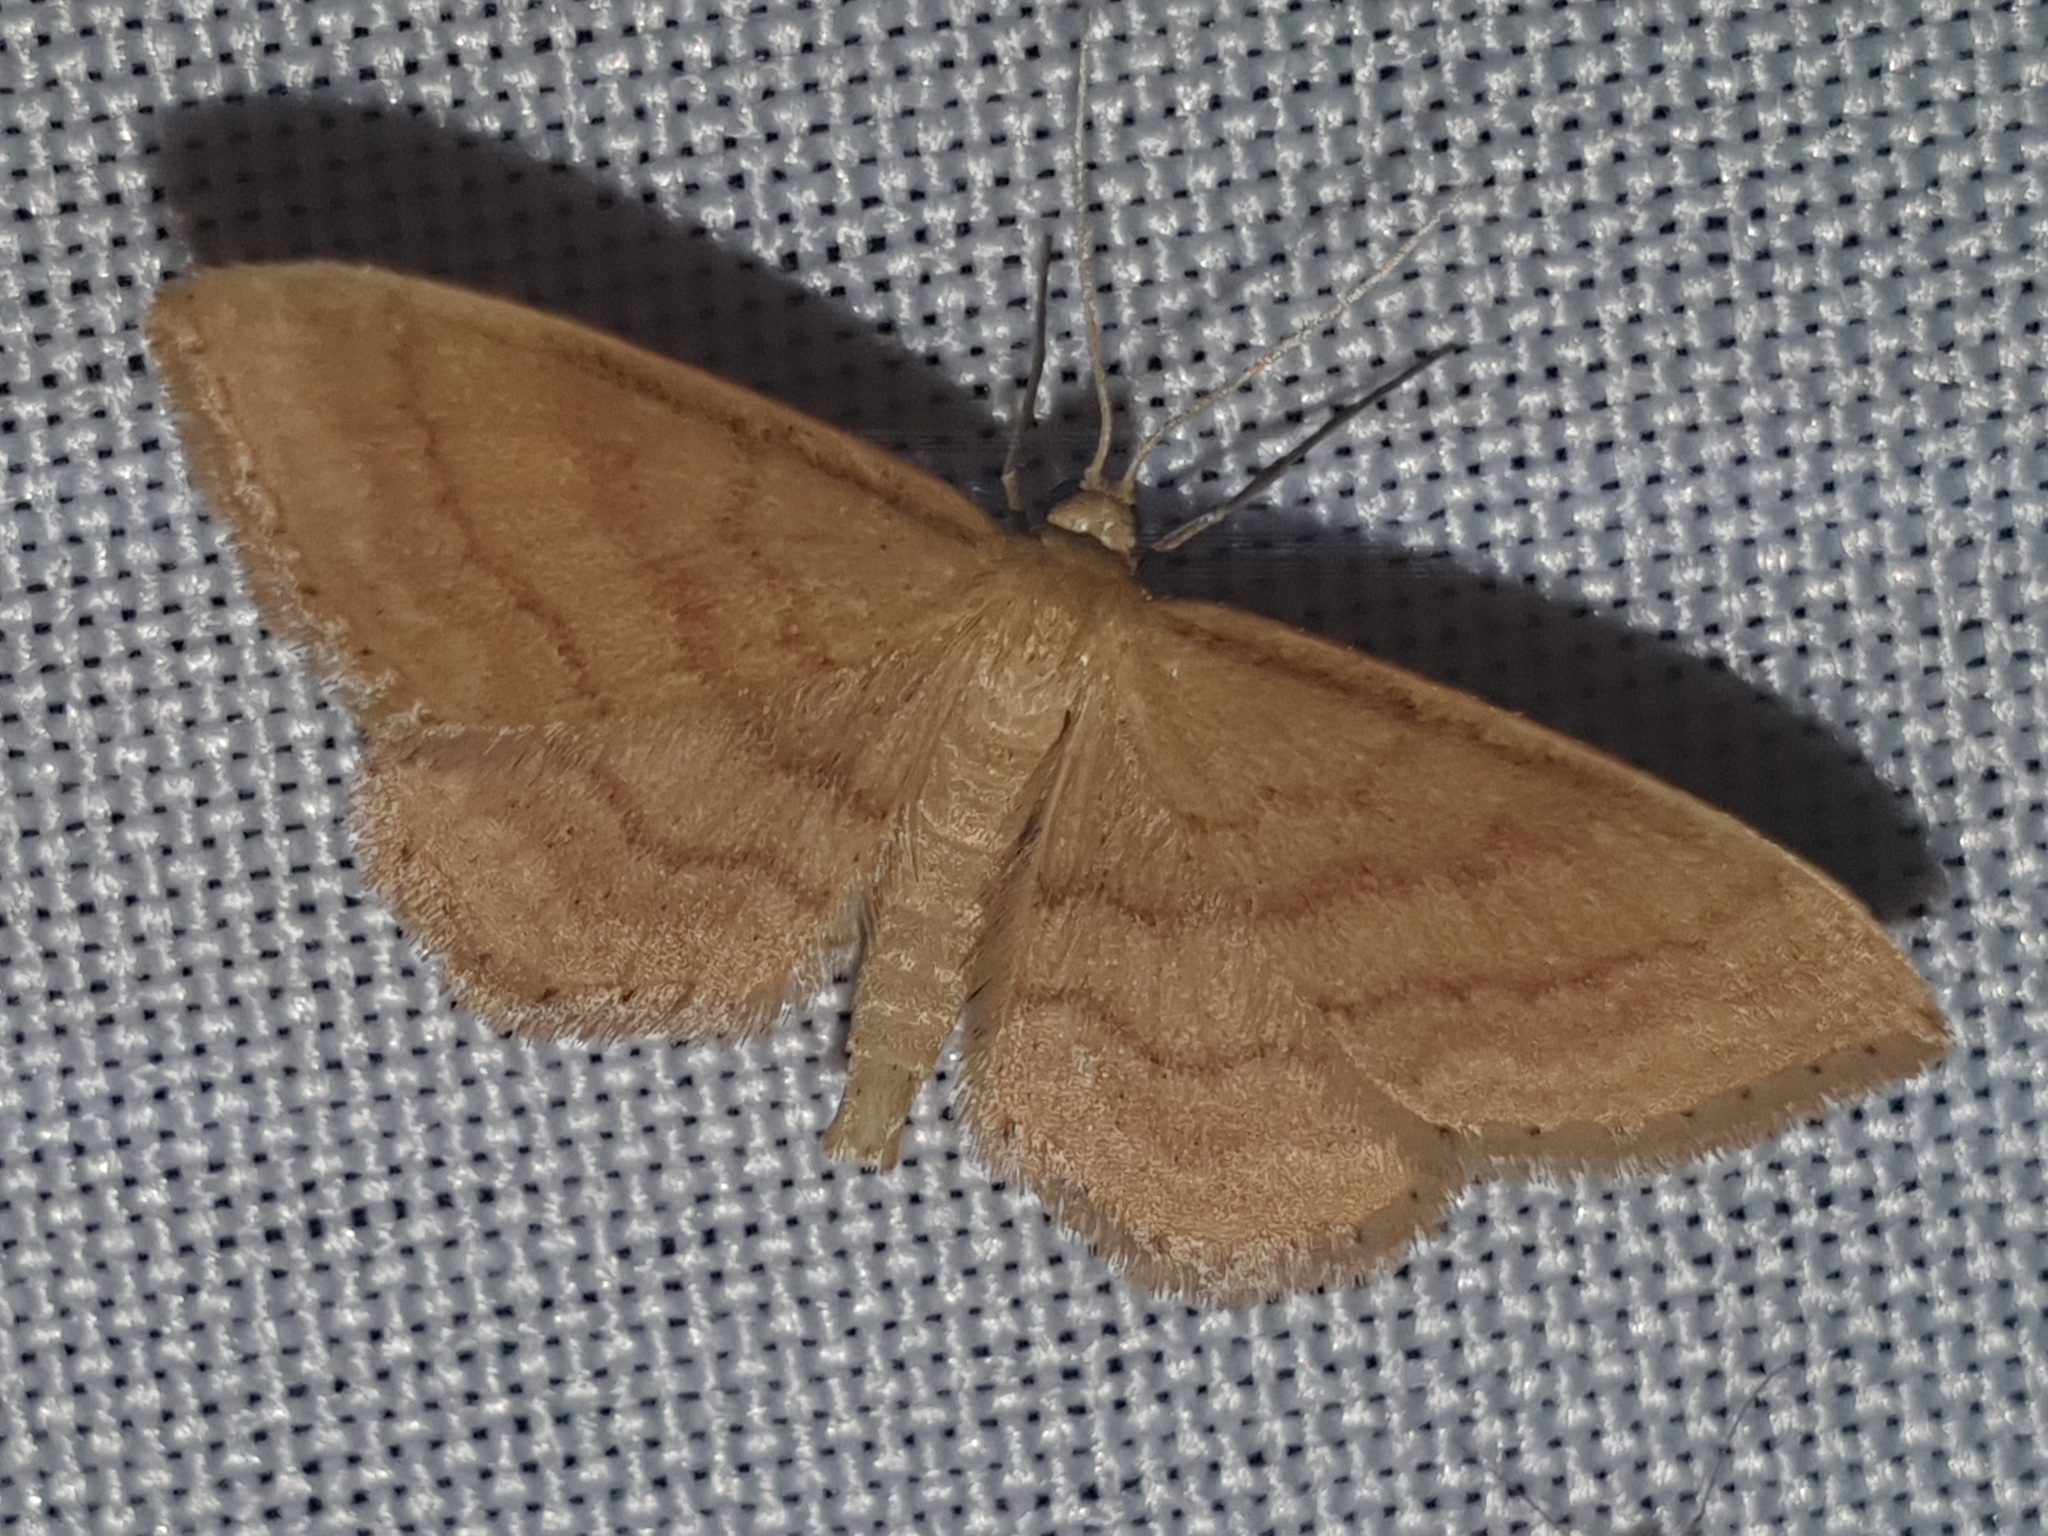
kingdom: Animalia
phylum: Arthropoda
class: Insecta
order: Lepidoptera
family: Geometridae
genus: Idaea
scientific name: Idaea ochrata
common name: Bright wave
